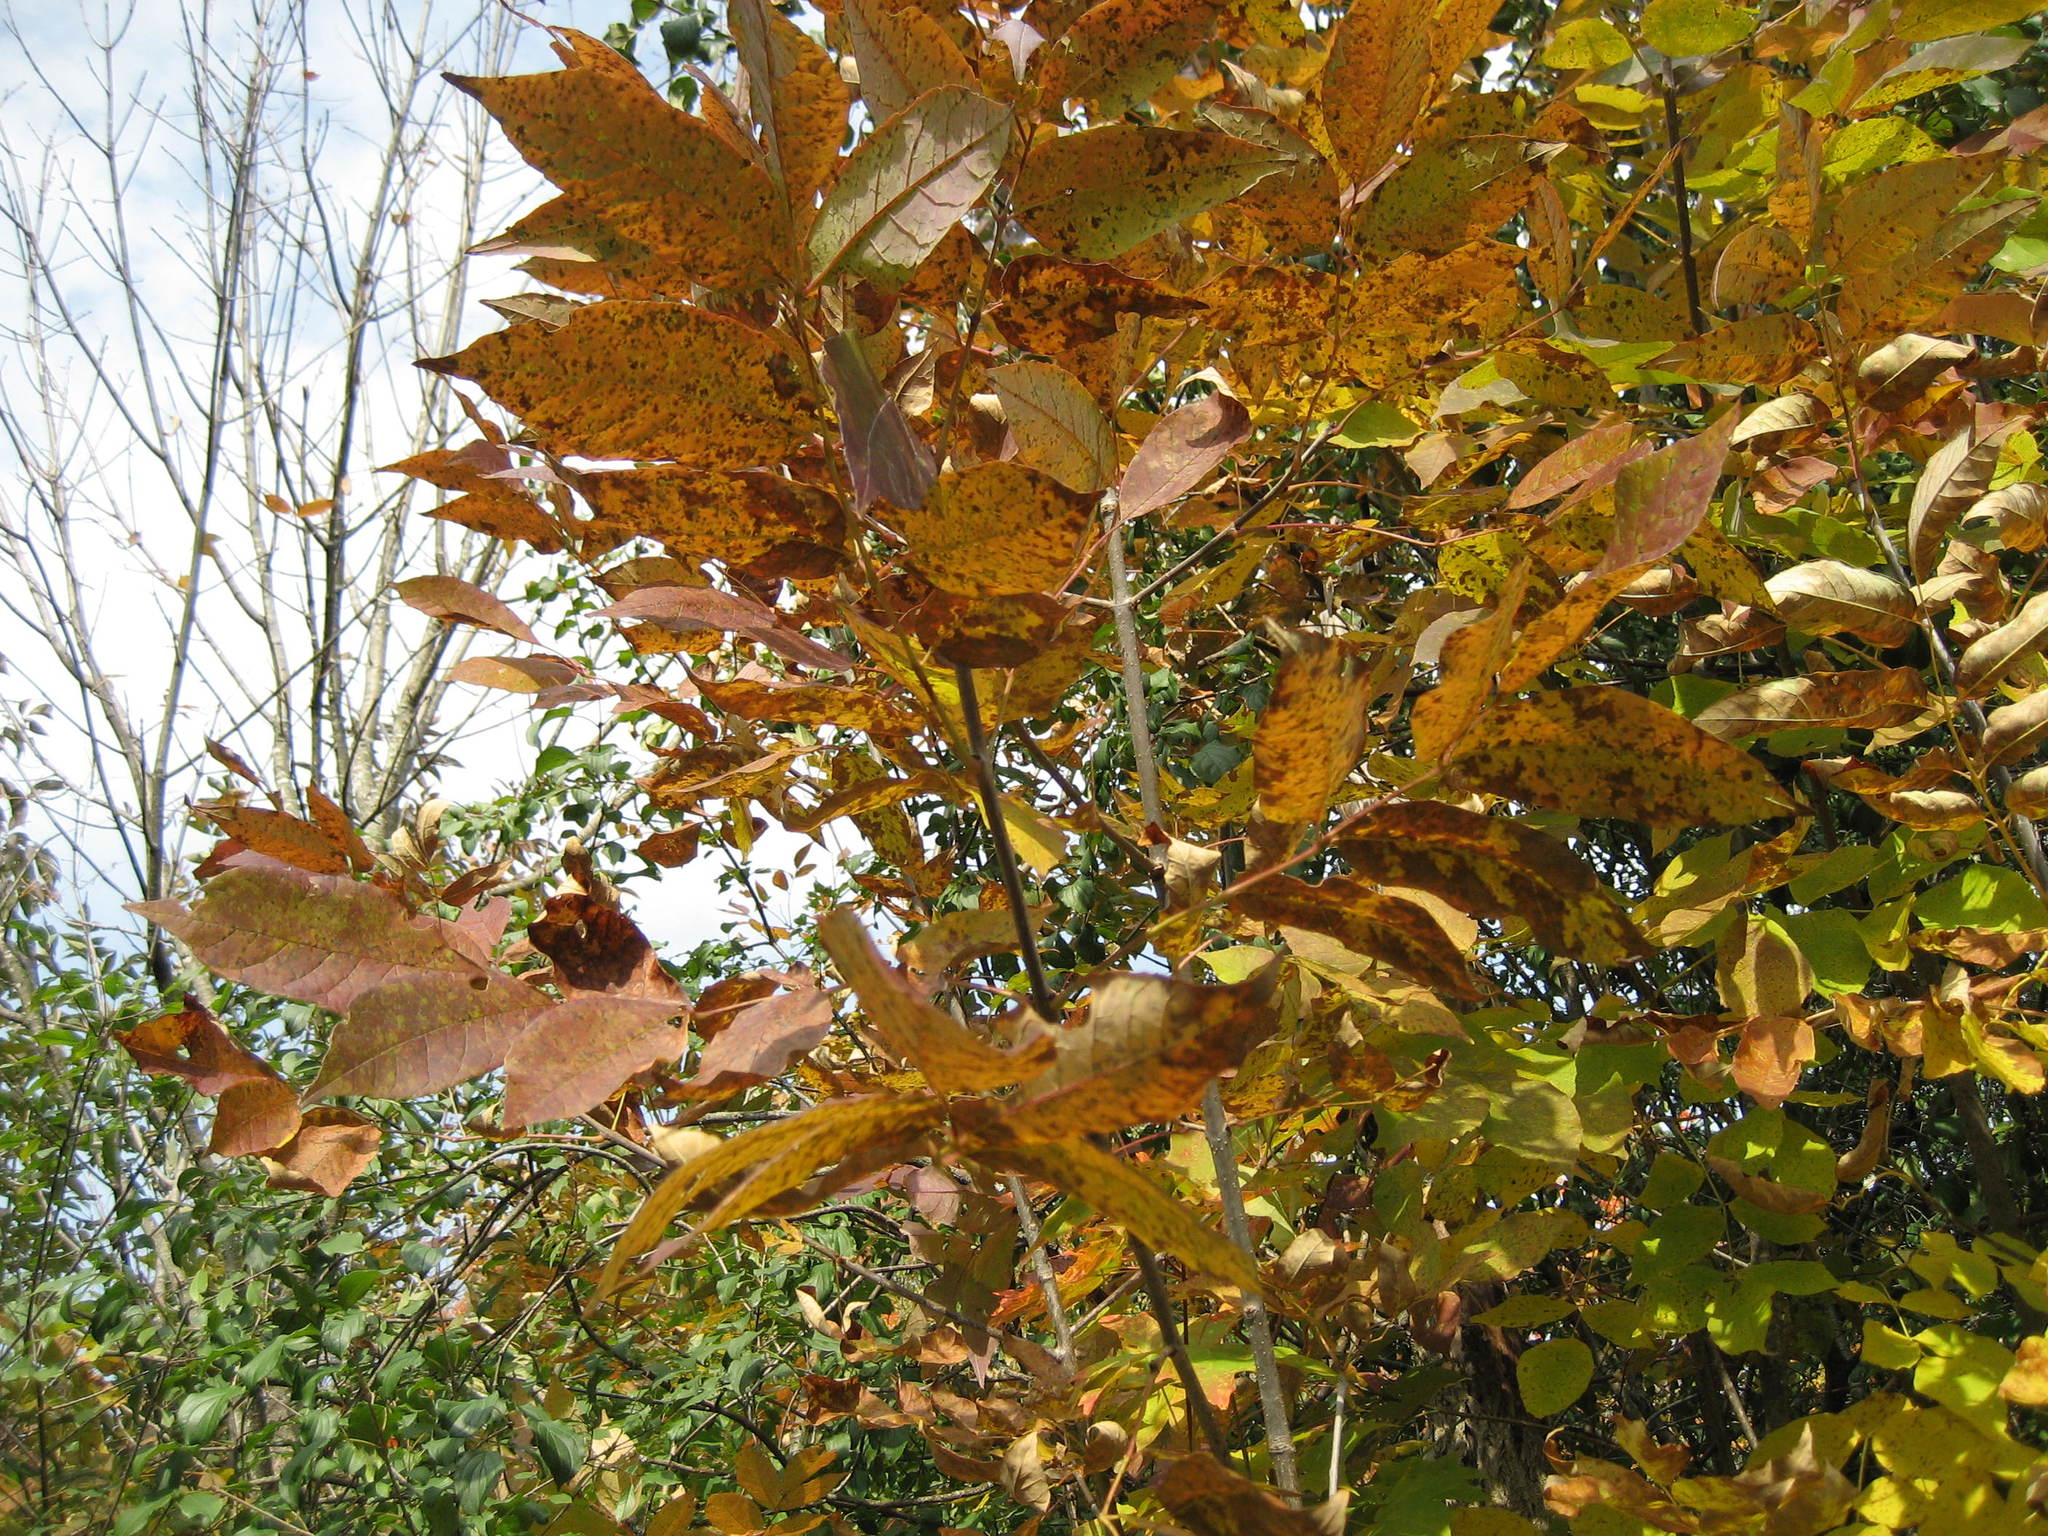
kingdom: Plantae
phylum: Tracheophyta
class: Magnoliopsida
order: Lamiales
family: Oleaceae
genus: Fraxinus
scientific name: Fraxinus americana
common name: White ash
